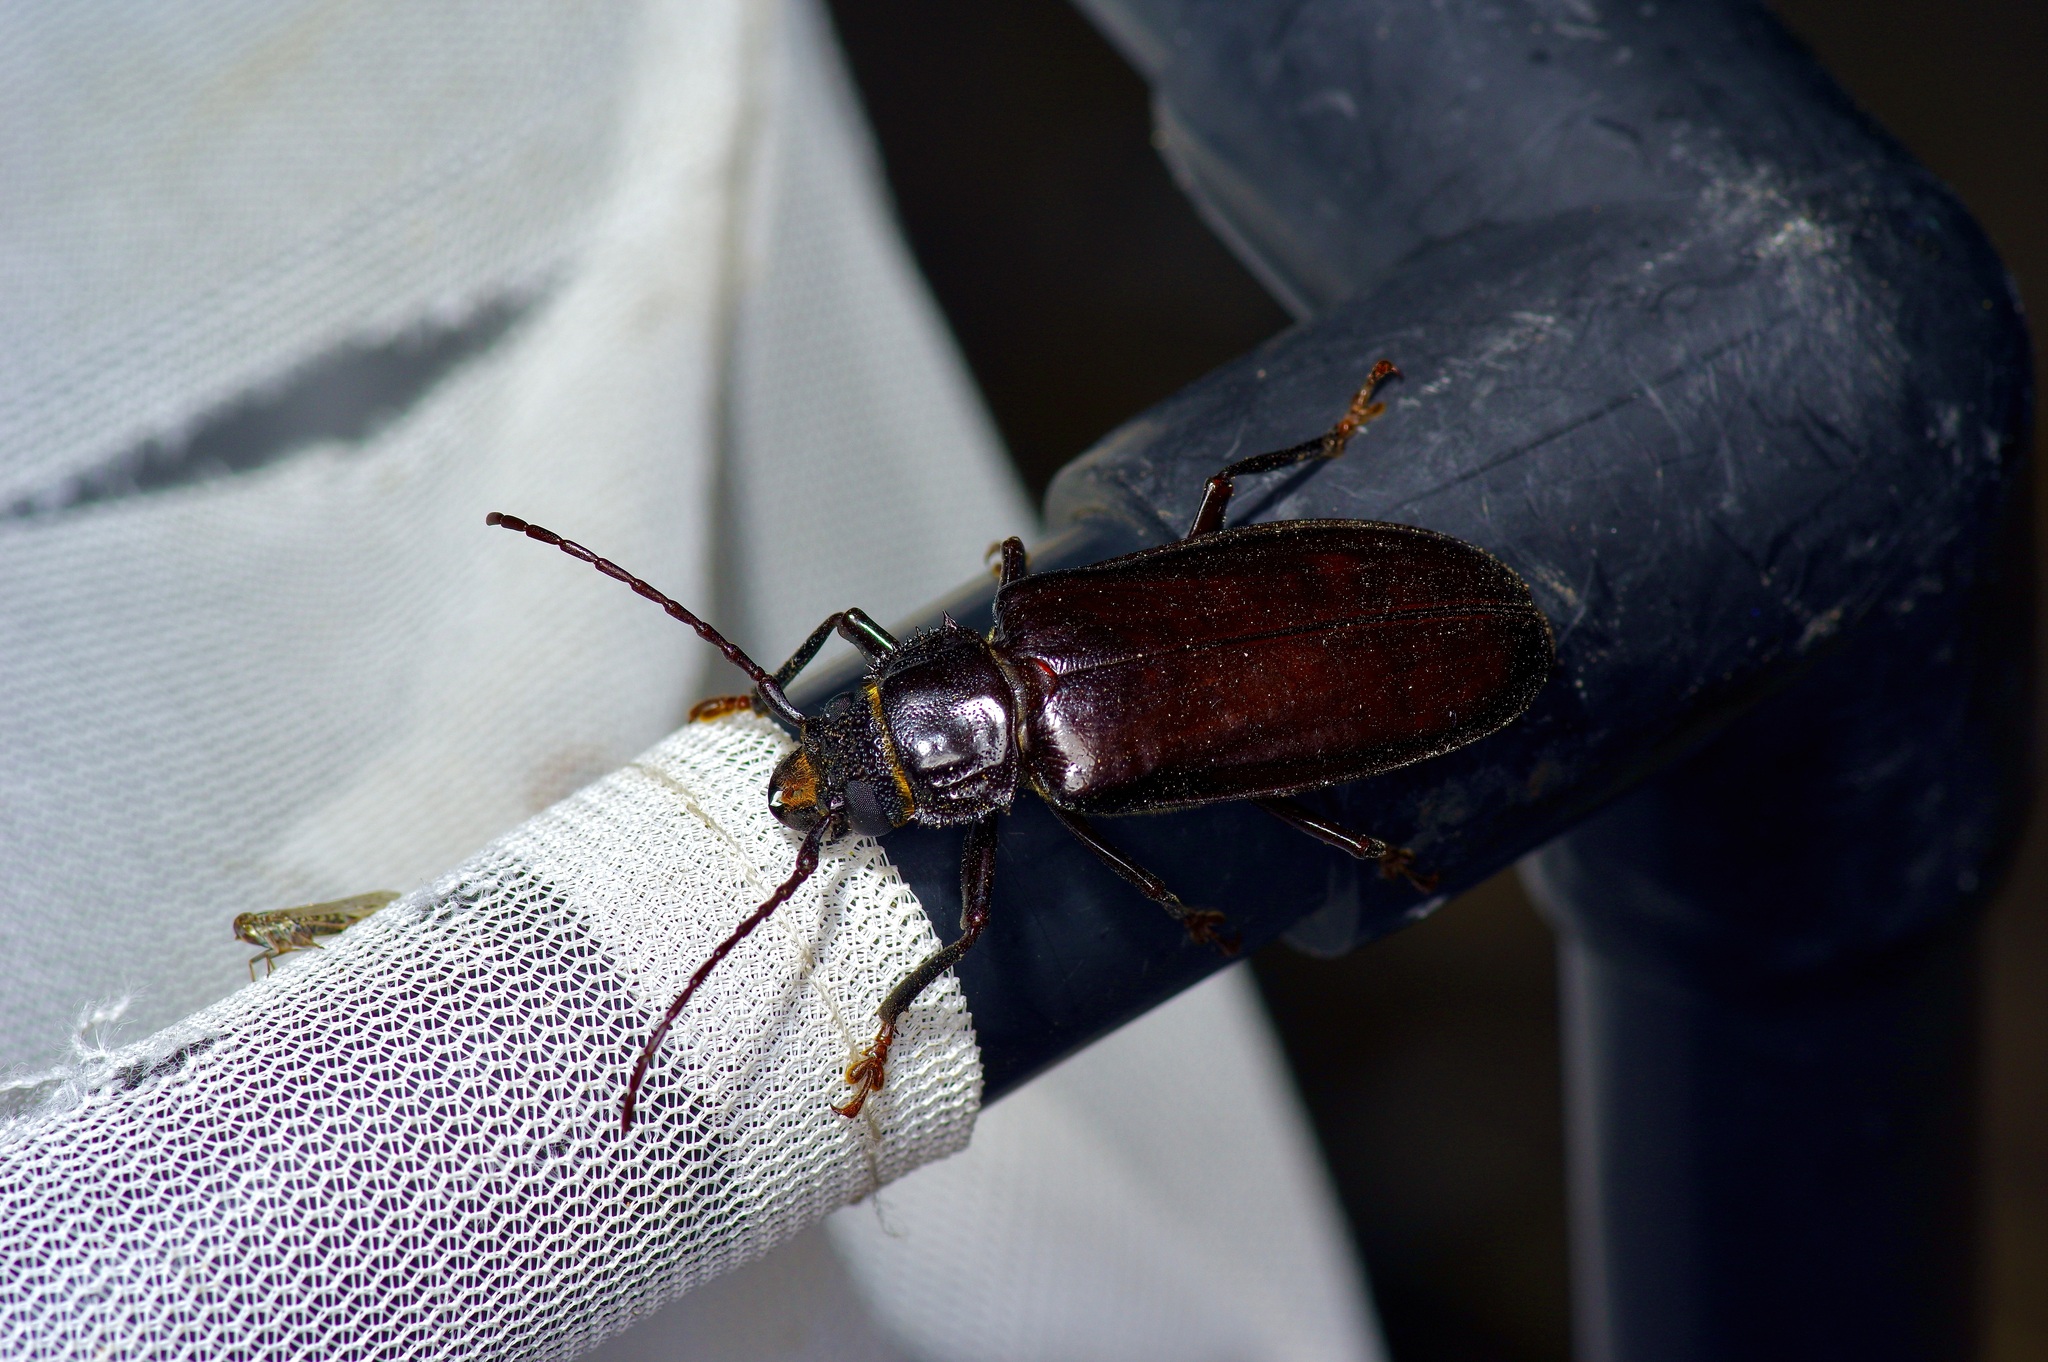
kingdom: Animalia
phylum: Arthropoda
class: Insecta
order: Coleoptera
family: Cerambycidae
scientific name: Cerambycidae
